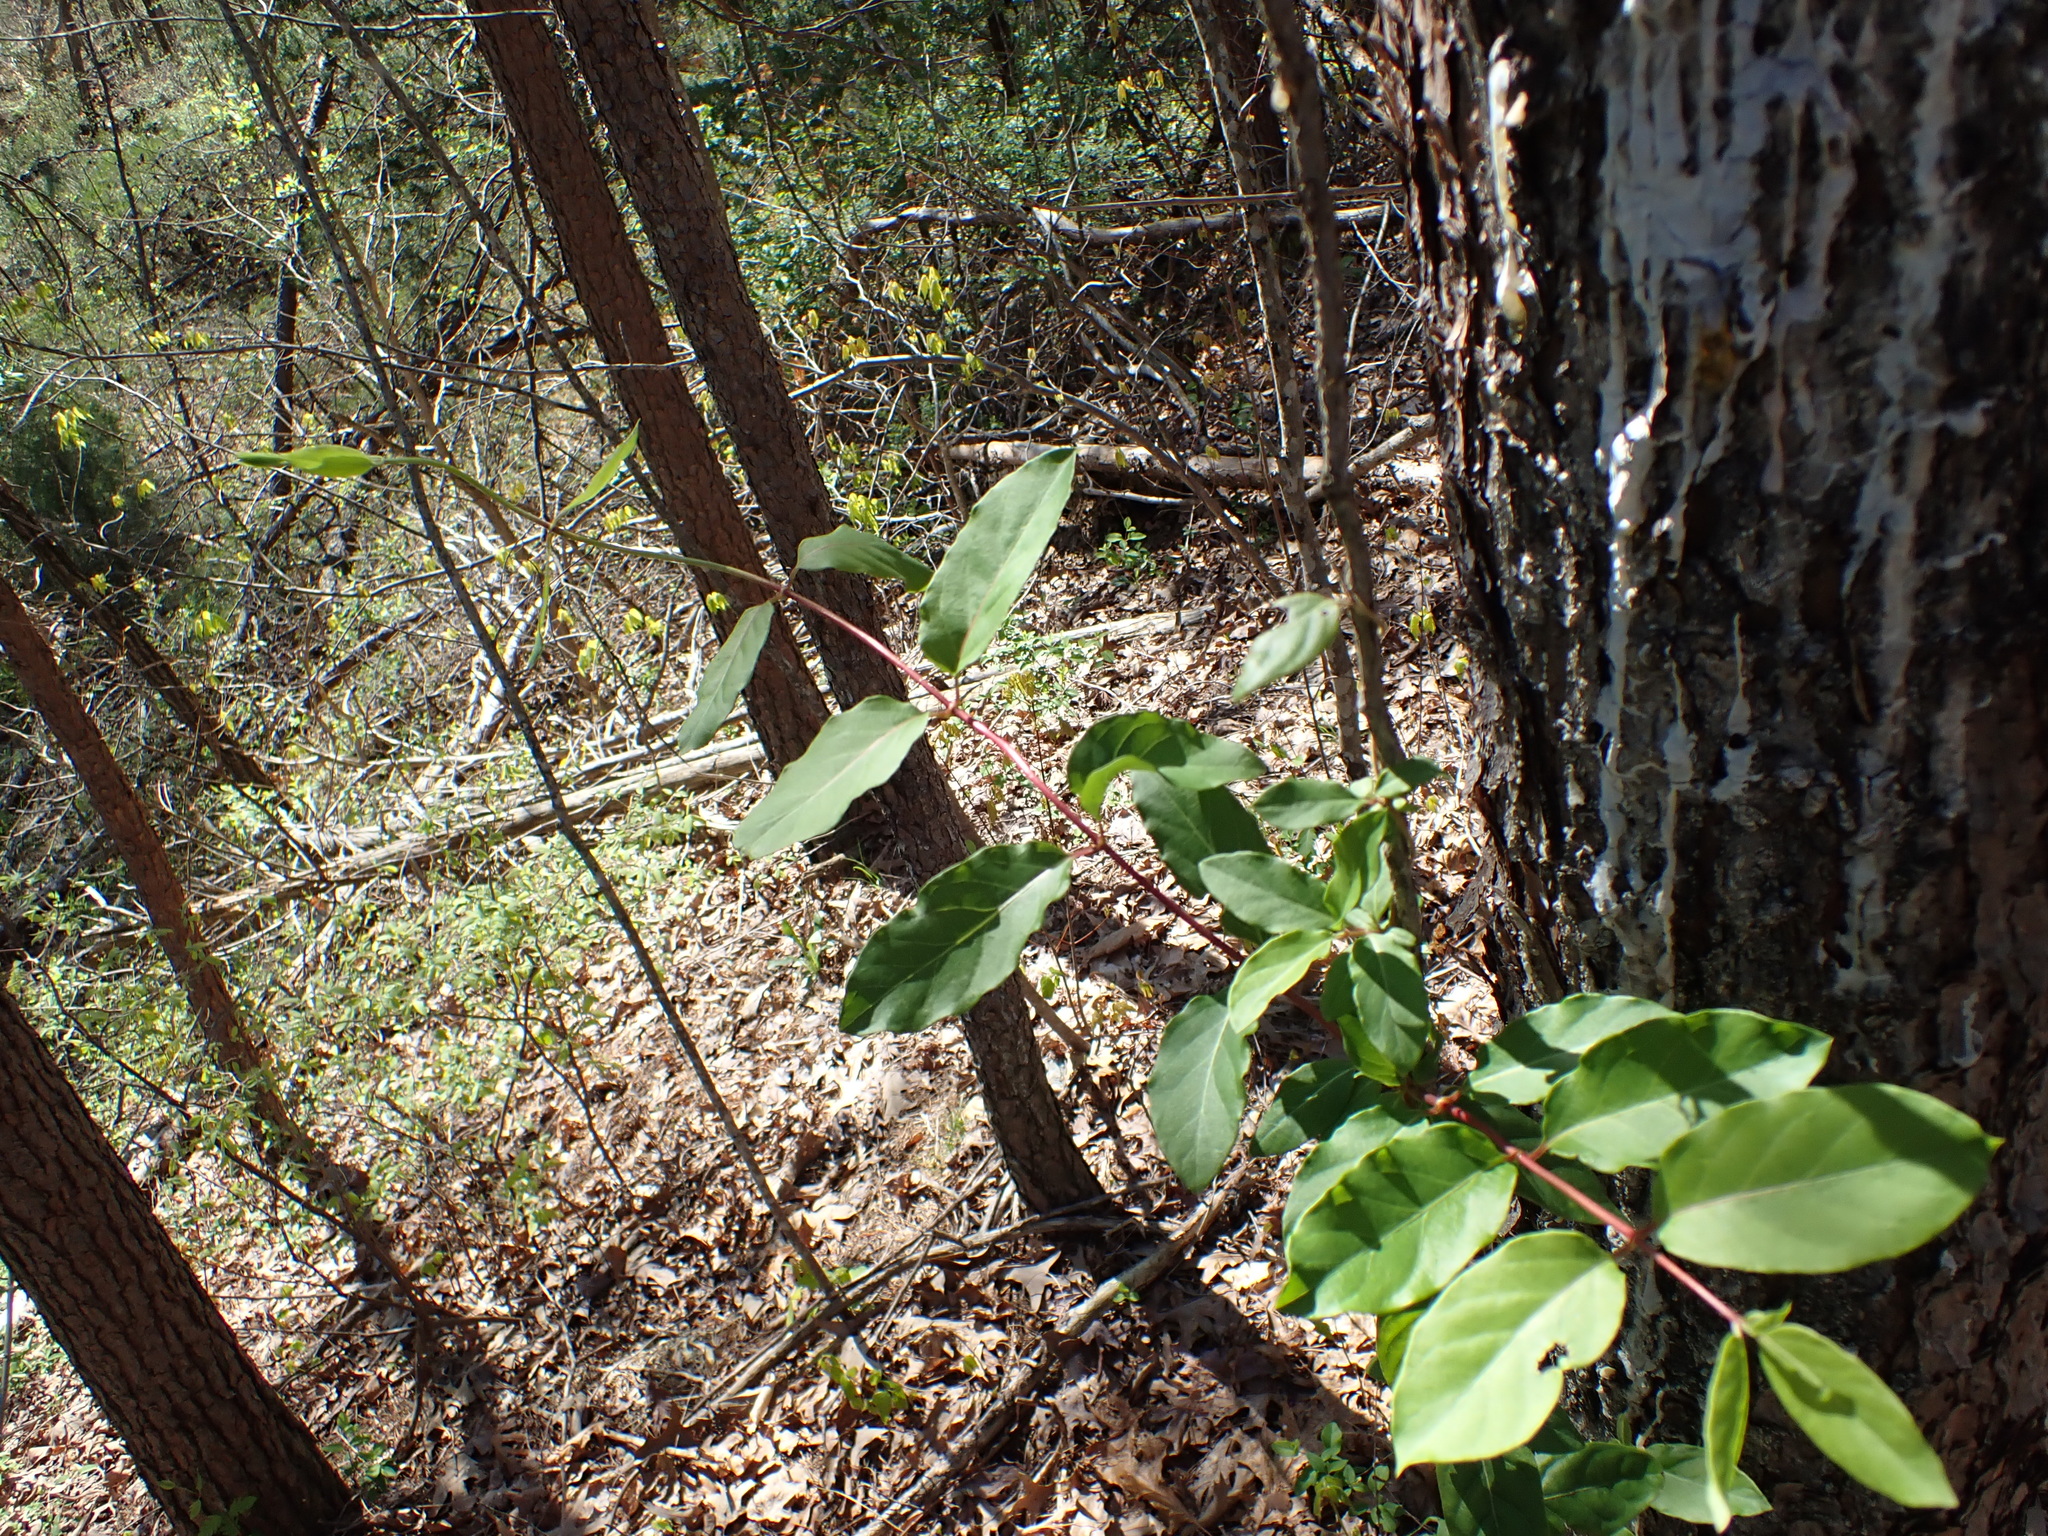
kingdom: Plantae
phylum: Tracheophyta
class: Magnoliopsida
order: Dipsacales
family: Caprifoliaceae
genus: Lonicera
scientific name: Lonicera japonica
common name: Japanese honeysuckle
